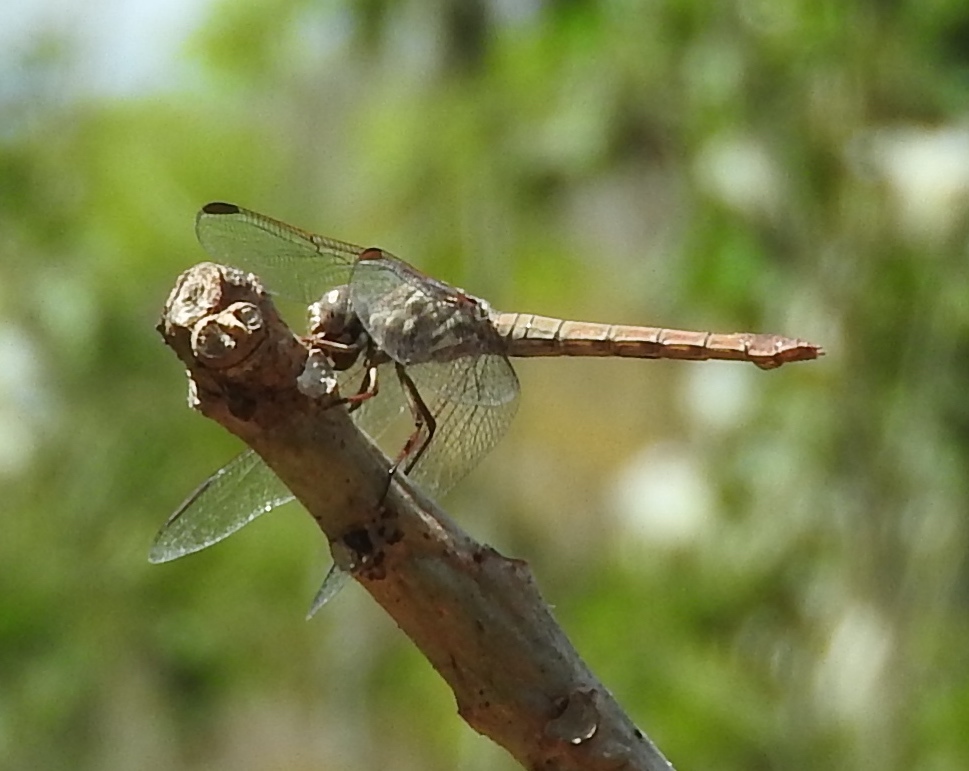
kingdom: Animalia
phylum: Arthropoda
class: Insecta
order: Odonata
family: Libellulidae
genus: Orthemis
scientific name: Orthemis ferruginea
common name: Roseate skimmer
